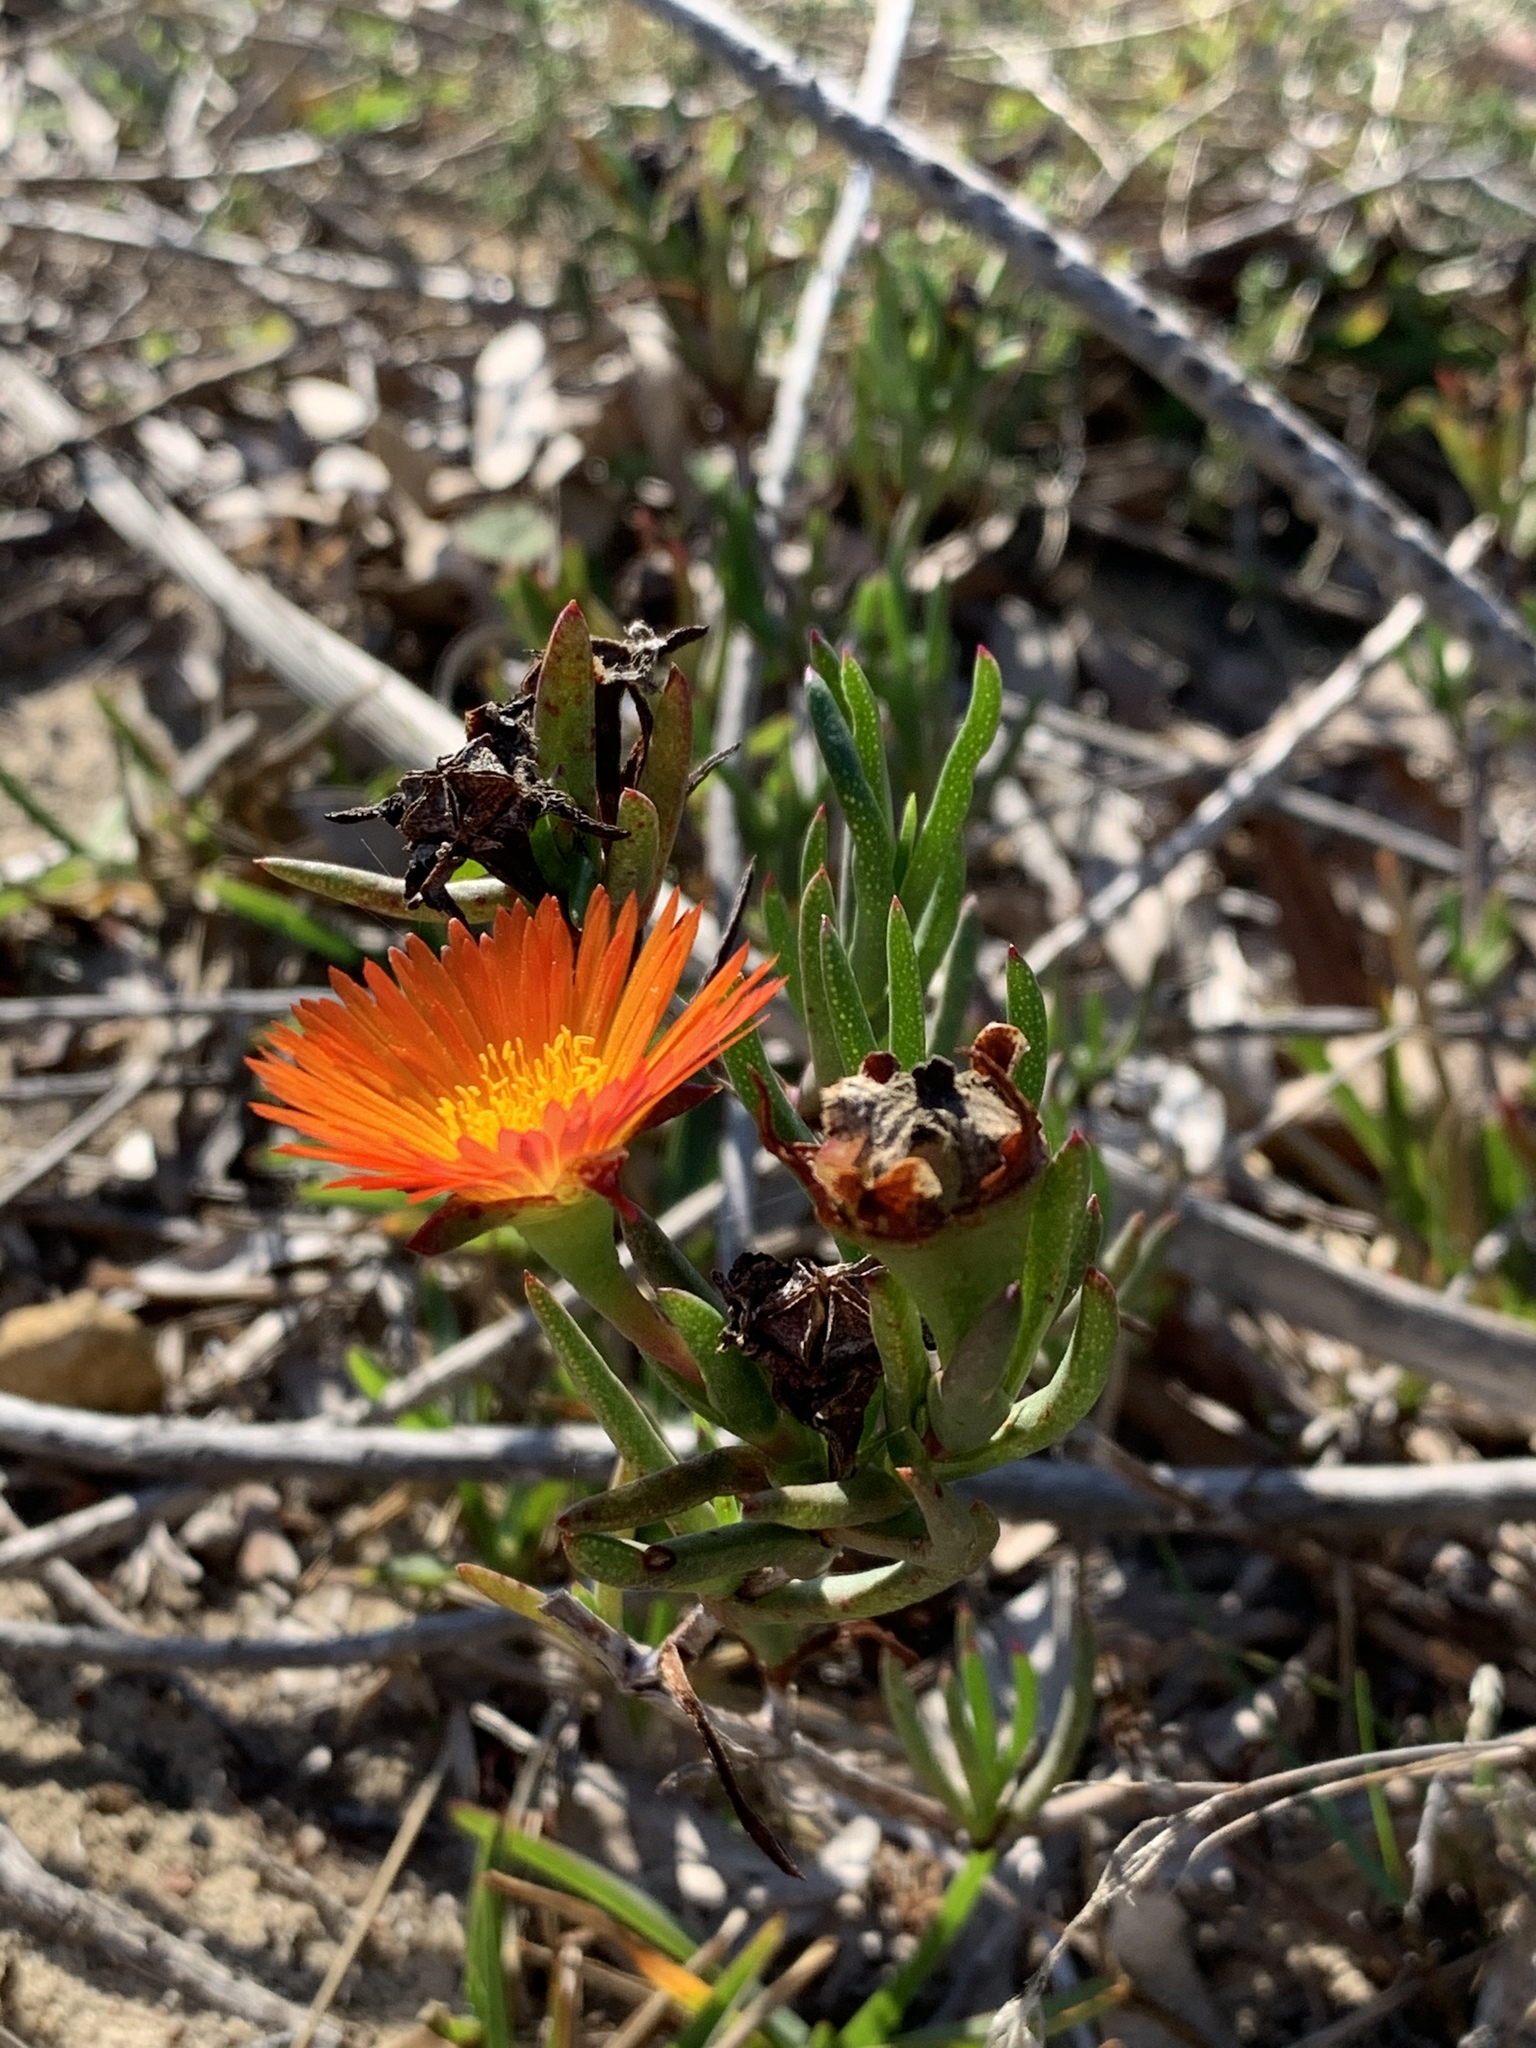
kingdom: Plantae
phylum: Tracheophyta
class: Magnoliopsida
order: Caryophyllales
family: Aizoaceae
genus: Lampranthus
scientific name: Lampranthus bicolor
